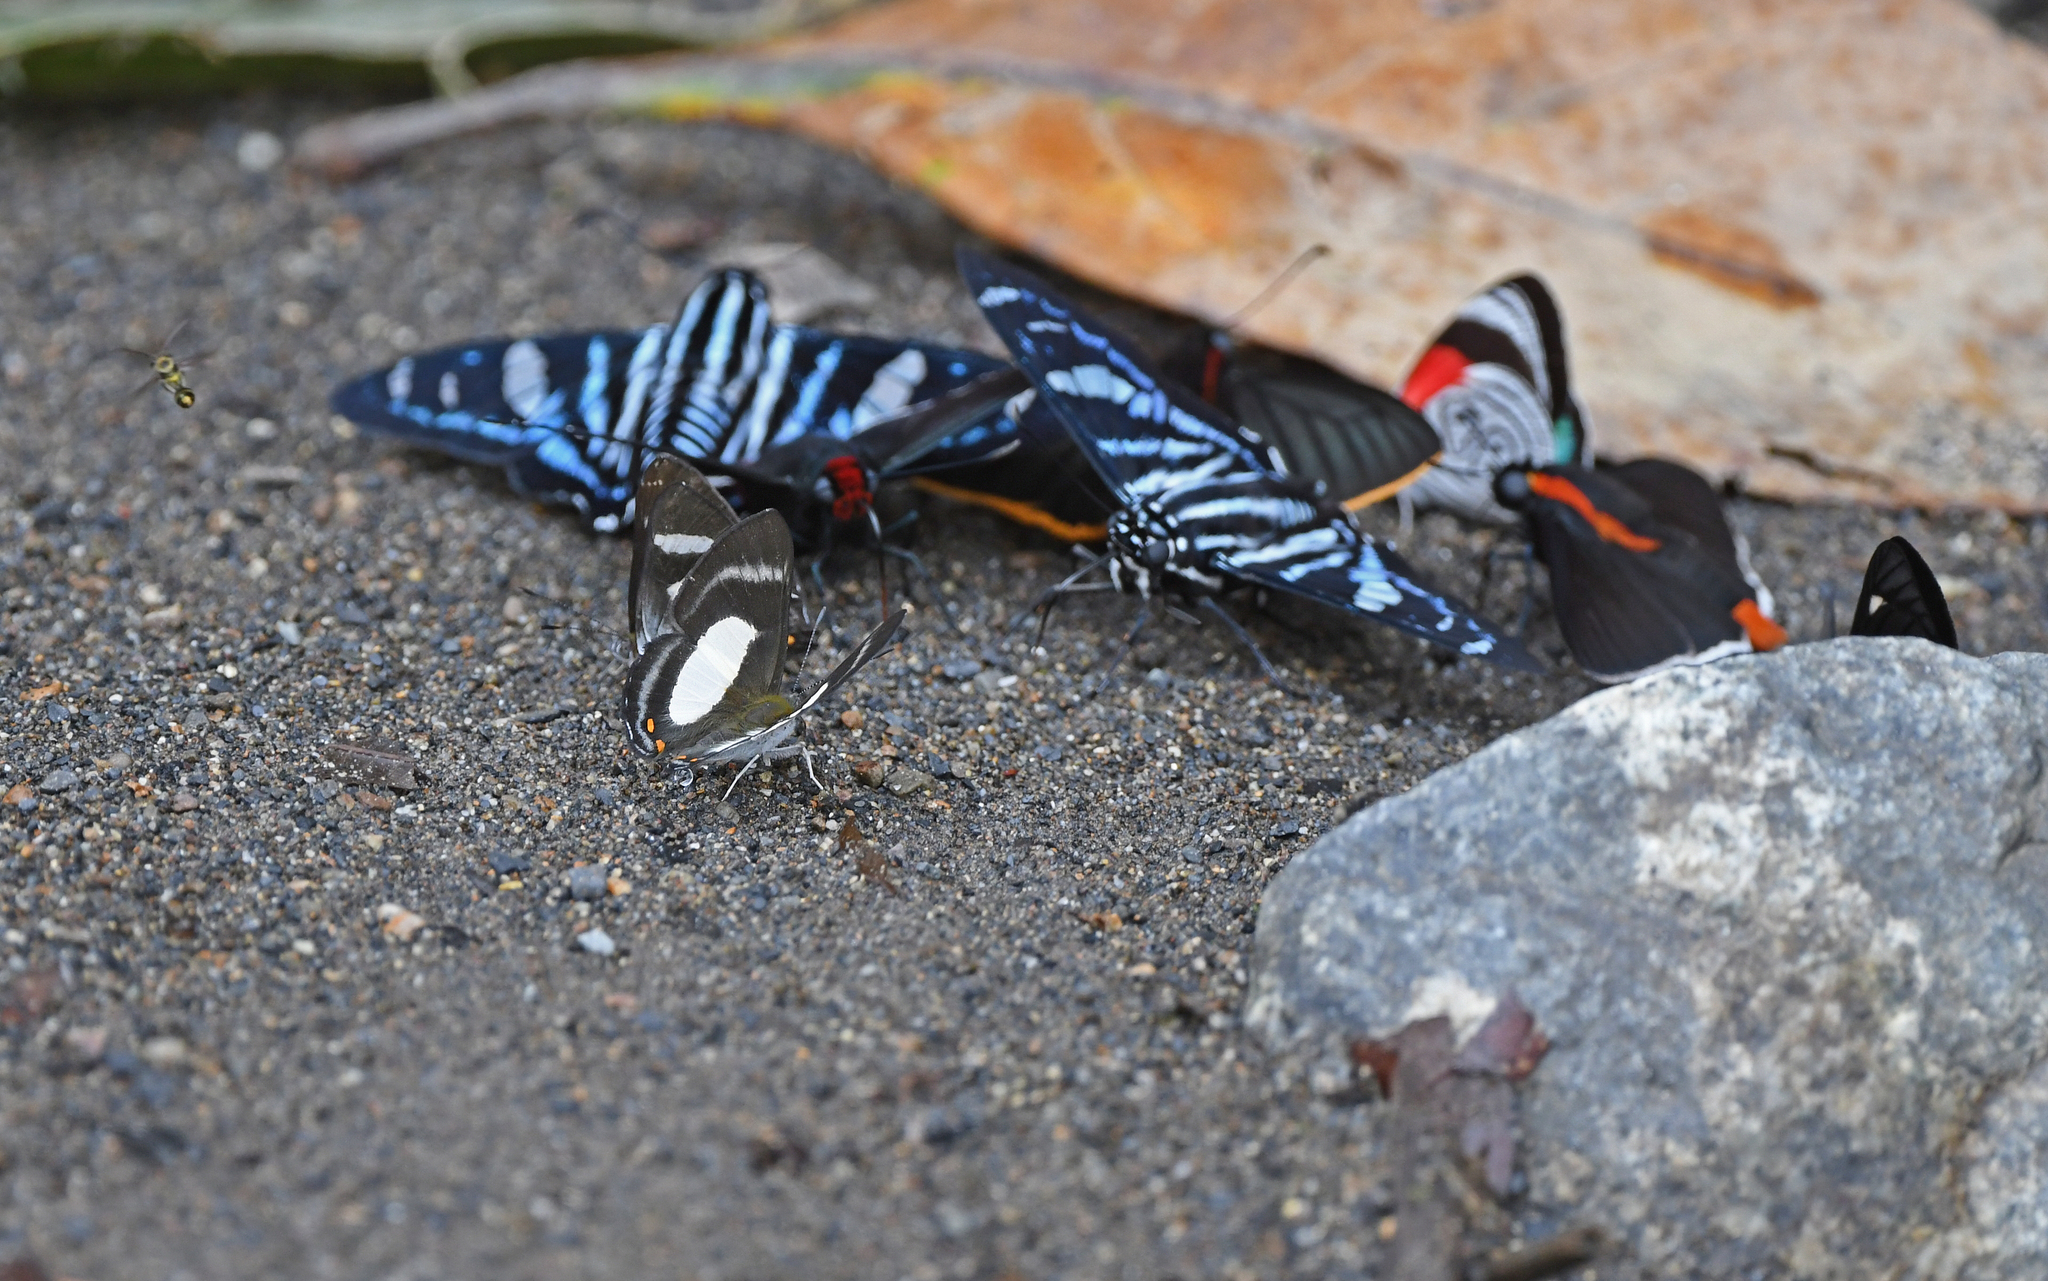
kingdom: Animalia
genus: Siseme
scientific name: Siseme alectryo
